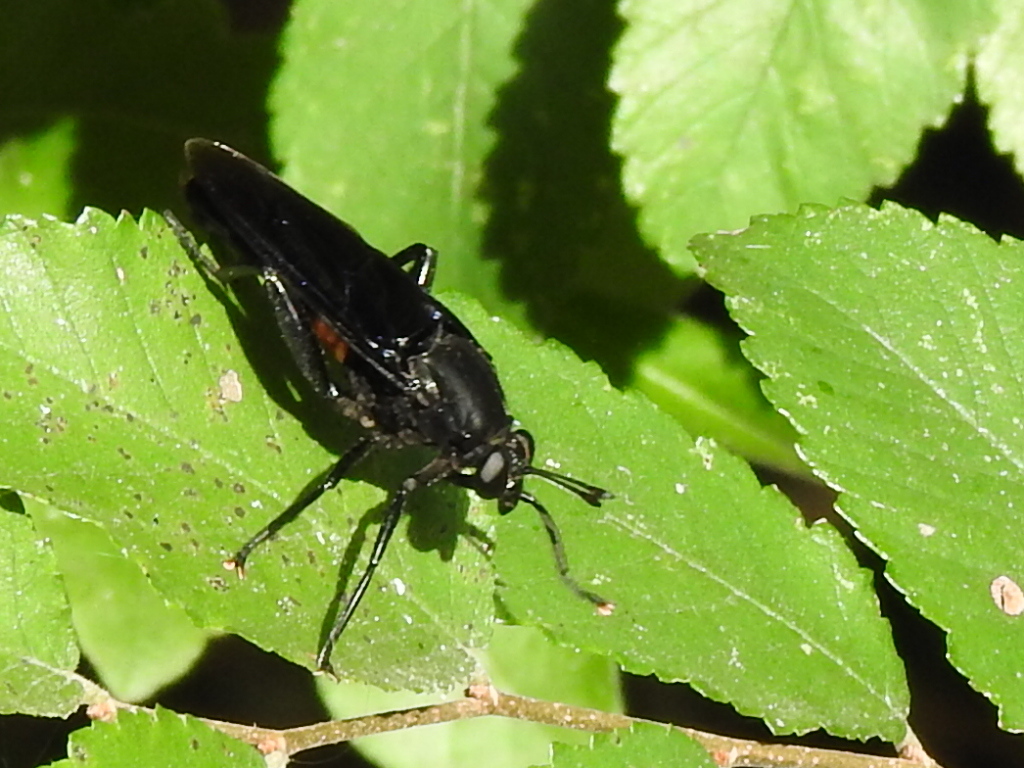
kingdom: Animalia
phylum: Arthropoda
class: Insecta
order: Diptera
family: Mydidae
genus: Mydas
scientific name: Mydas clavatus
